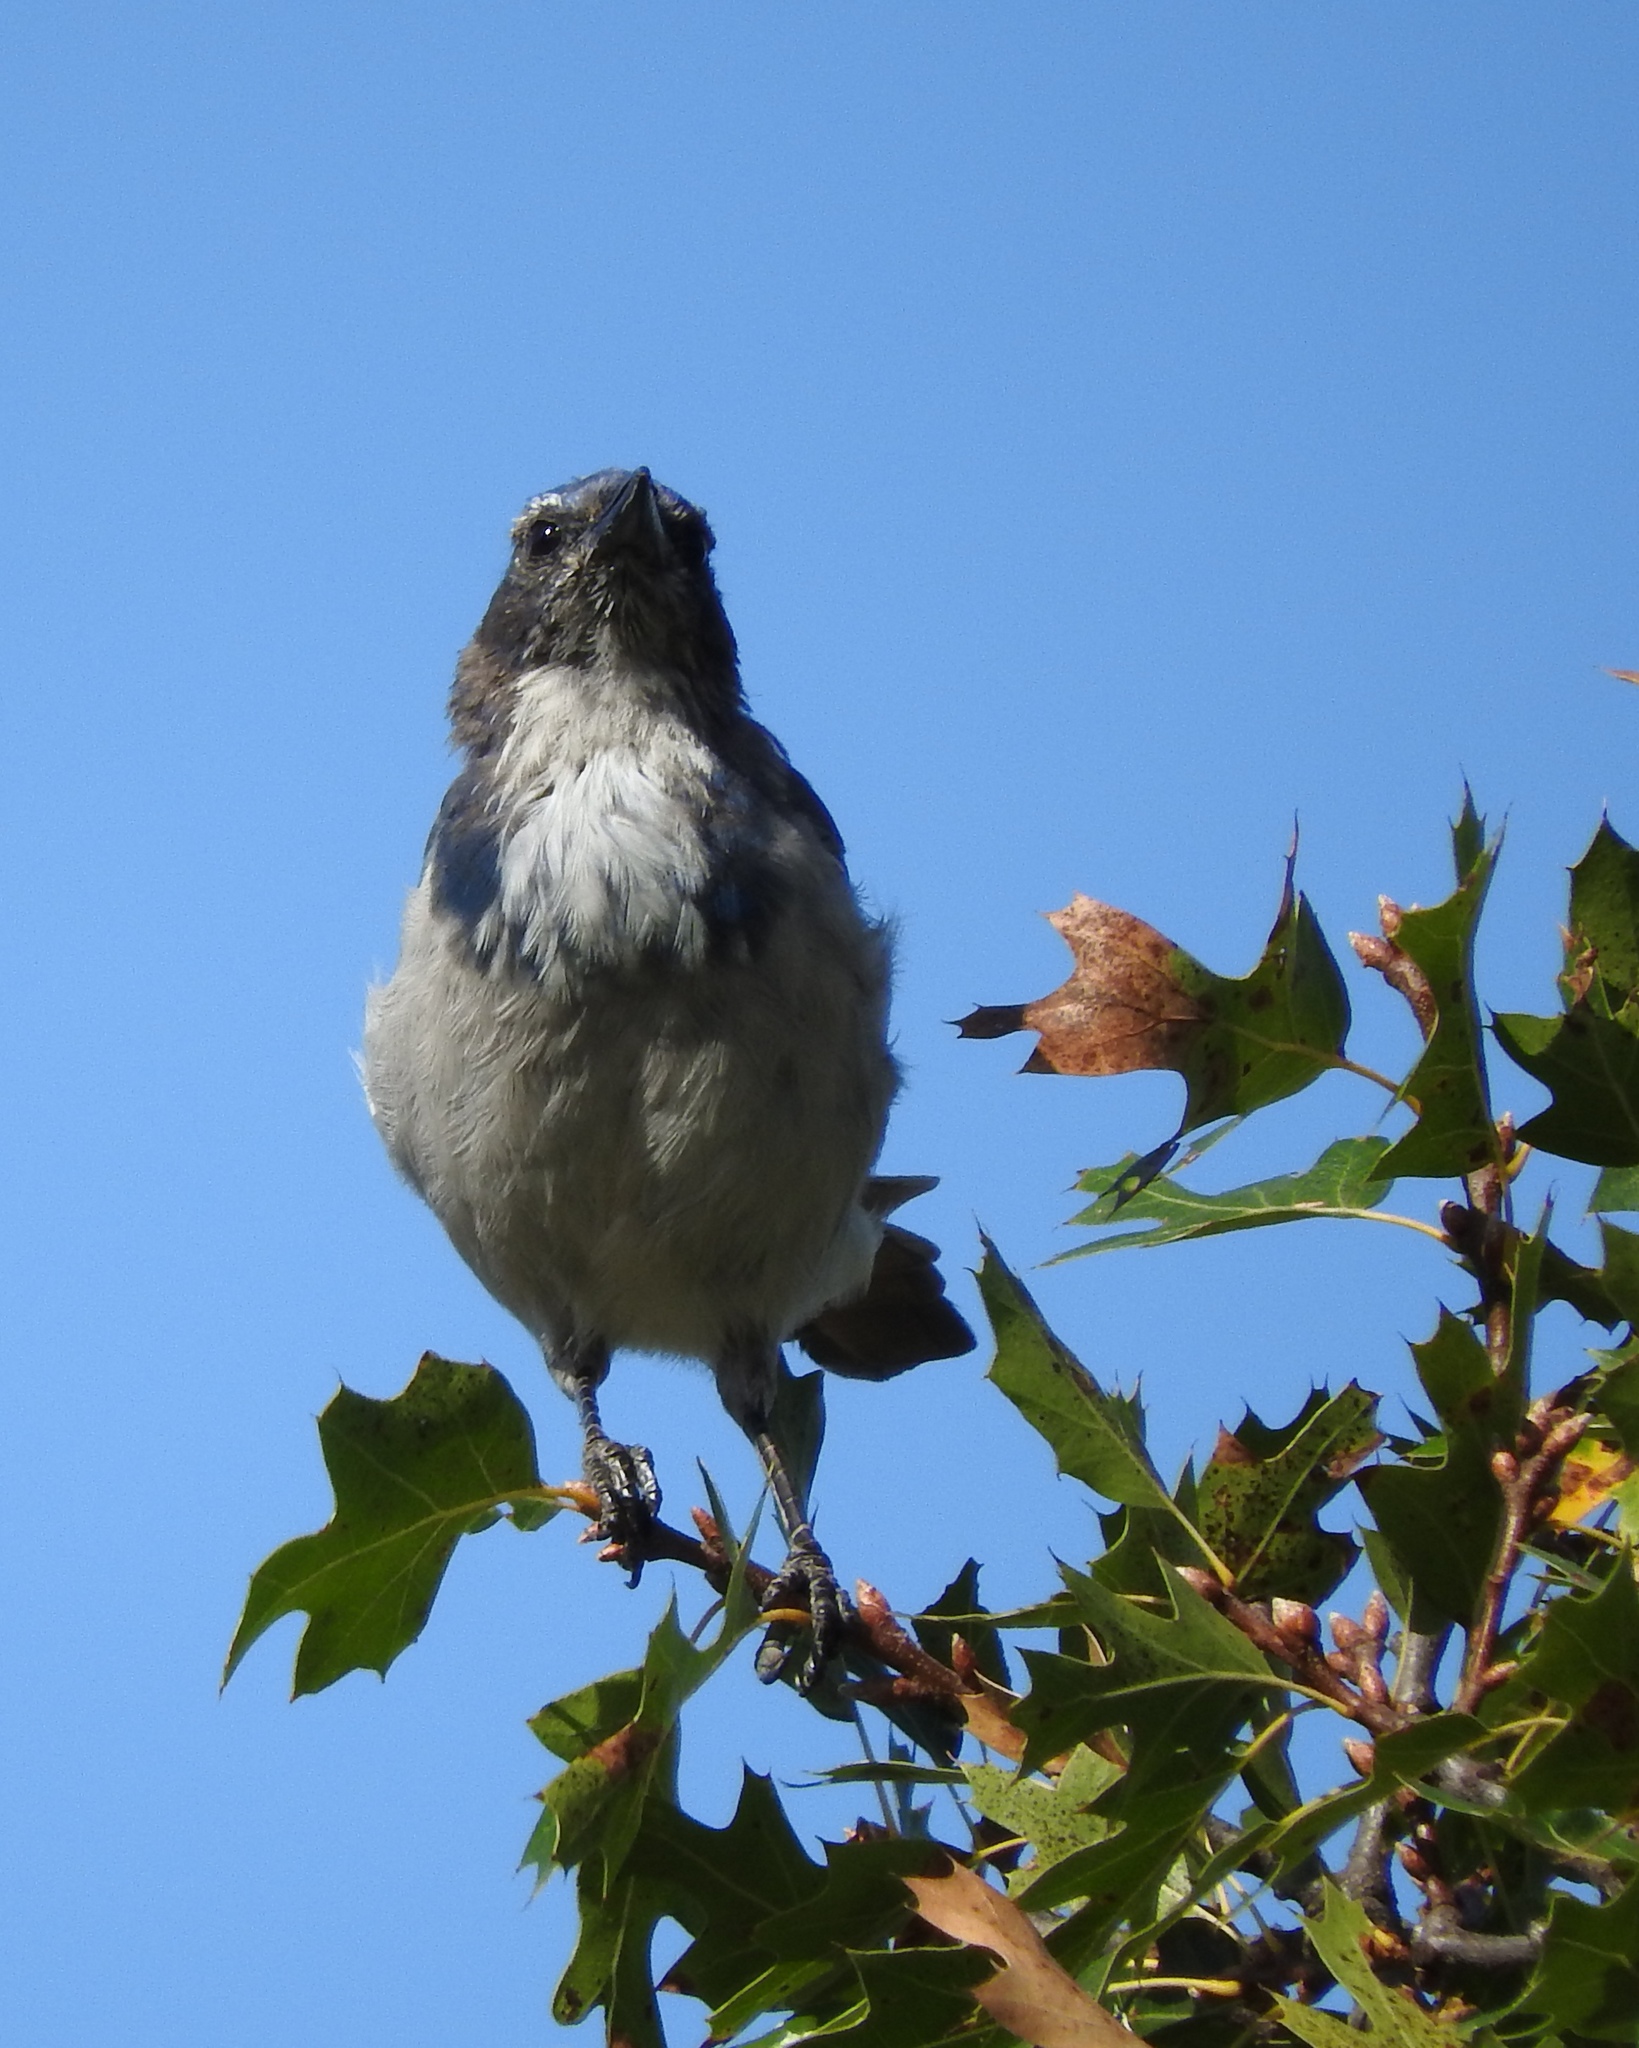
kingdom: Animalia
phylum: Chordata
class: Aves
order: Passeriformes
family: Corvidae
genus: Aphelocoma
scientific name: Aphelocoma californica
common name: California scrub-jay
